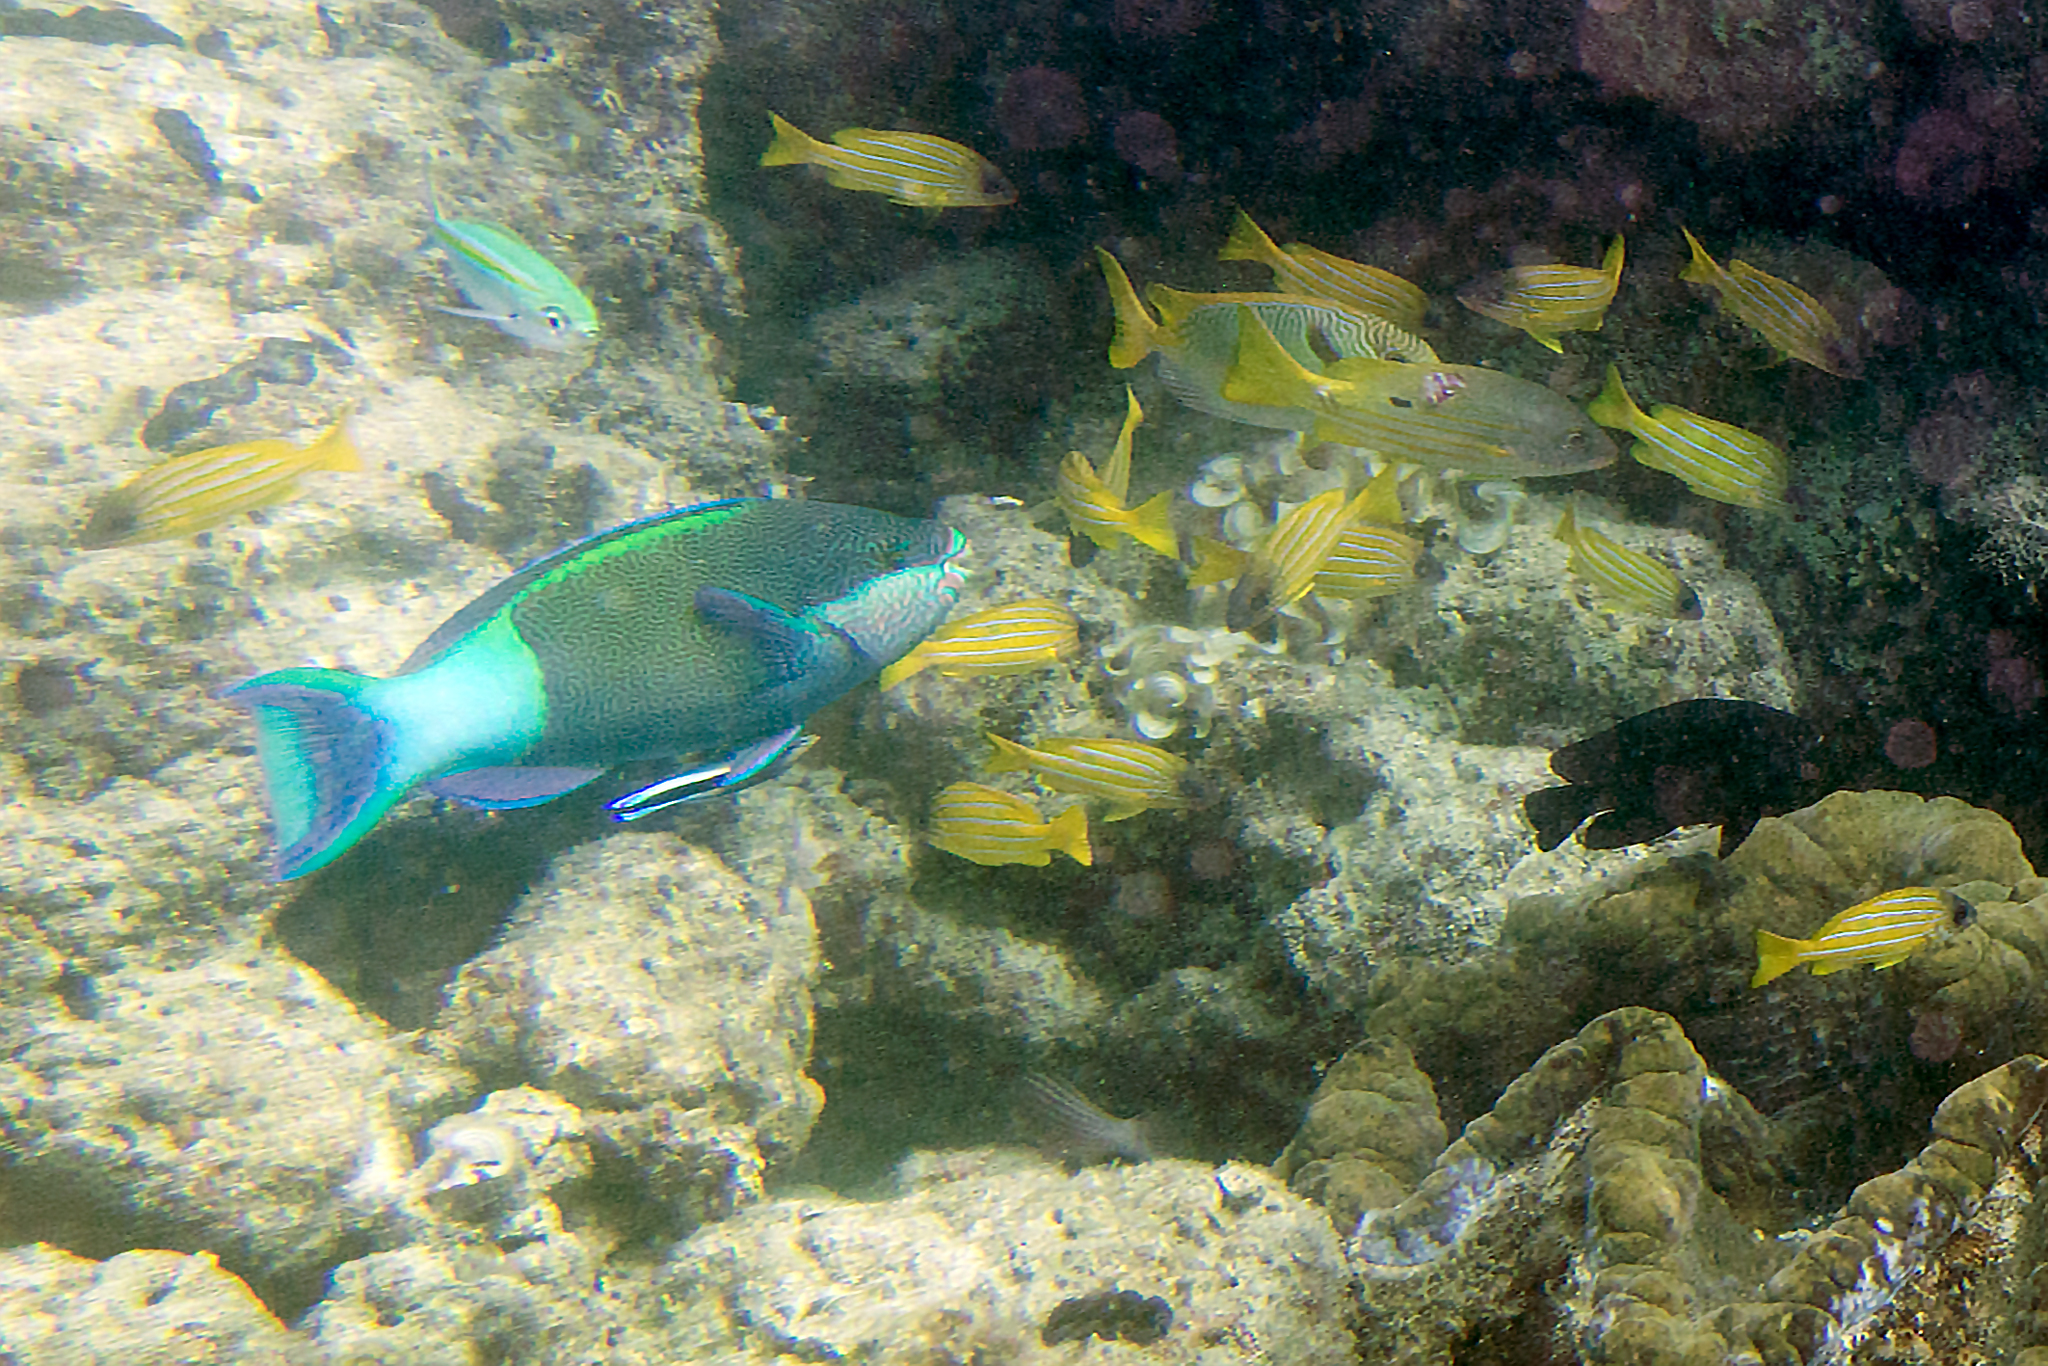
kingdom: Animalia
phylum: Chordata
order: Perciformes
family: Scaridae
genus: Scarus
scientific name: Scarus frenatus
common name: Bridled parrotfish
